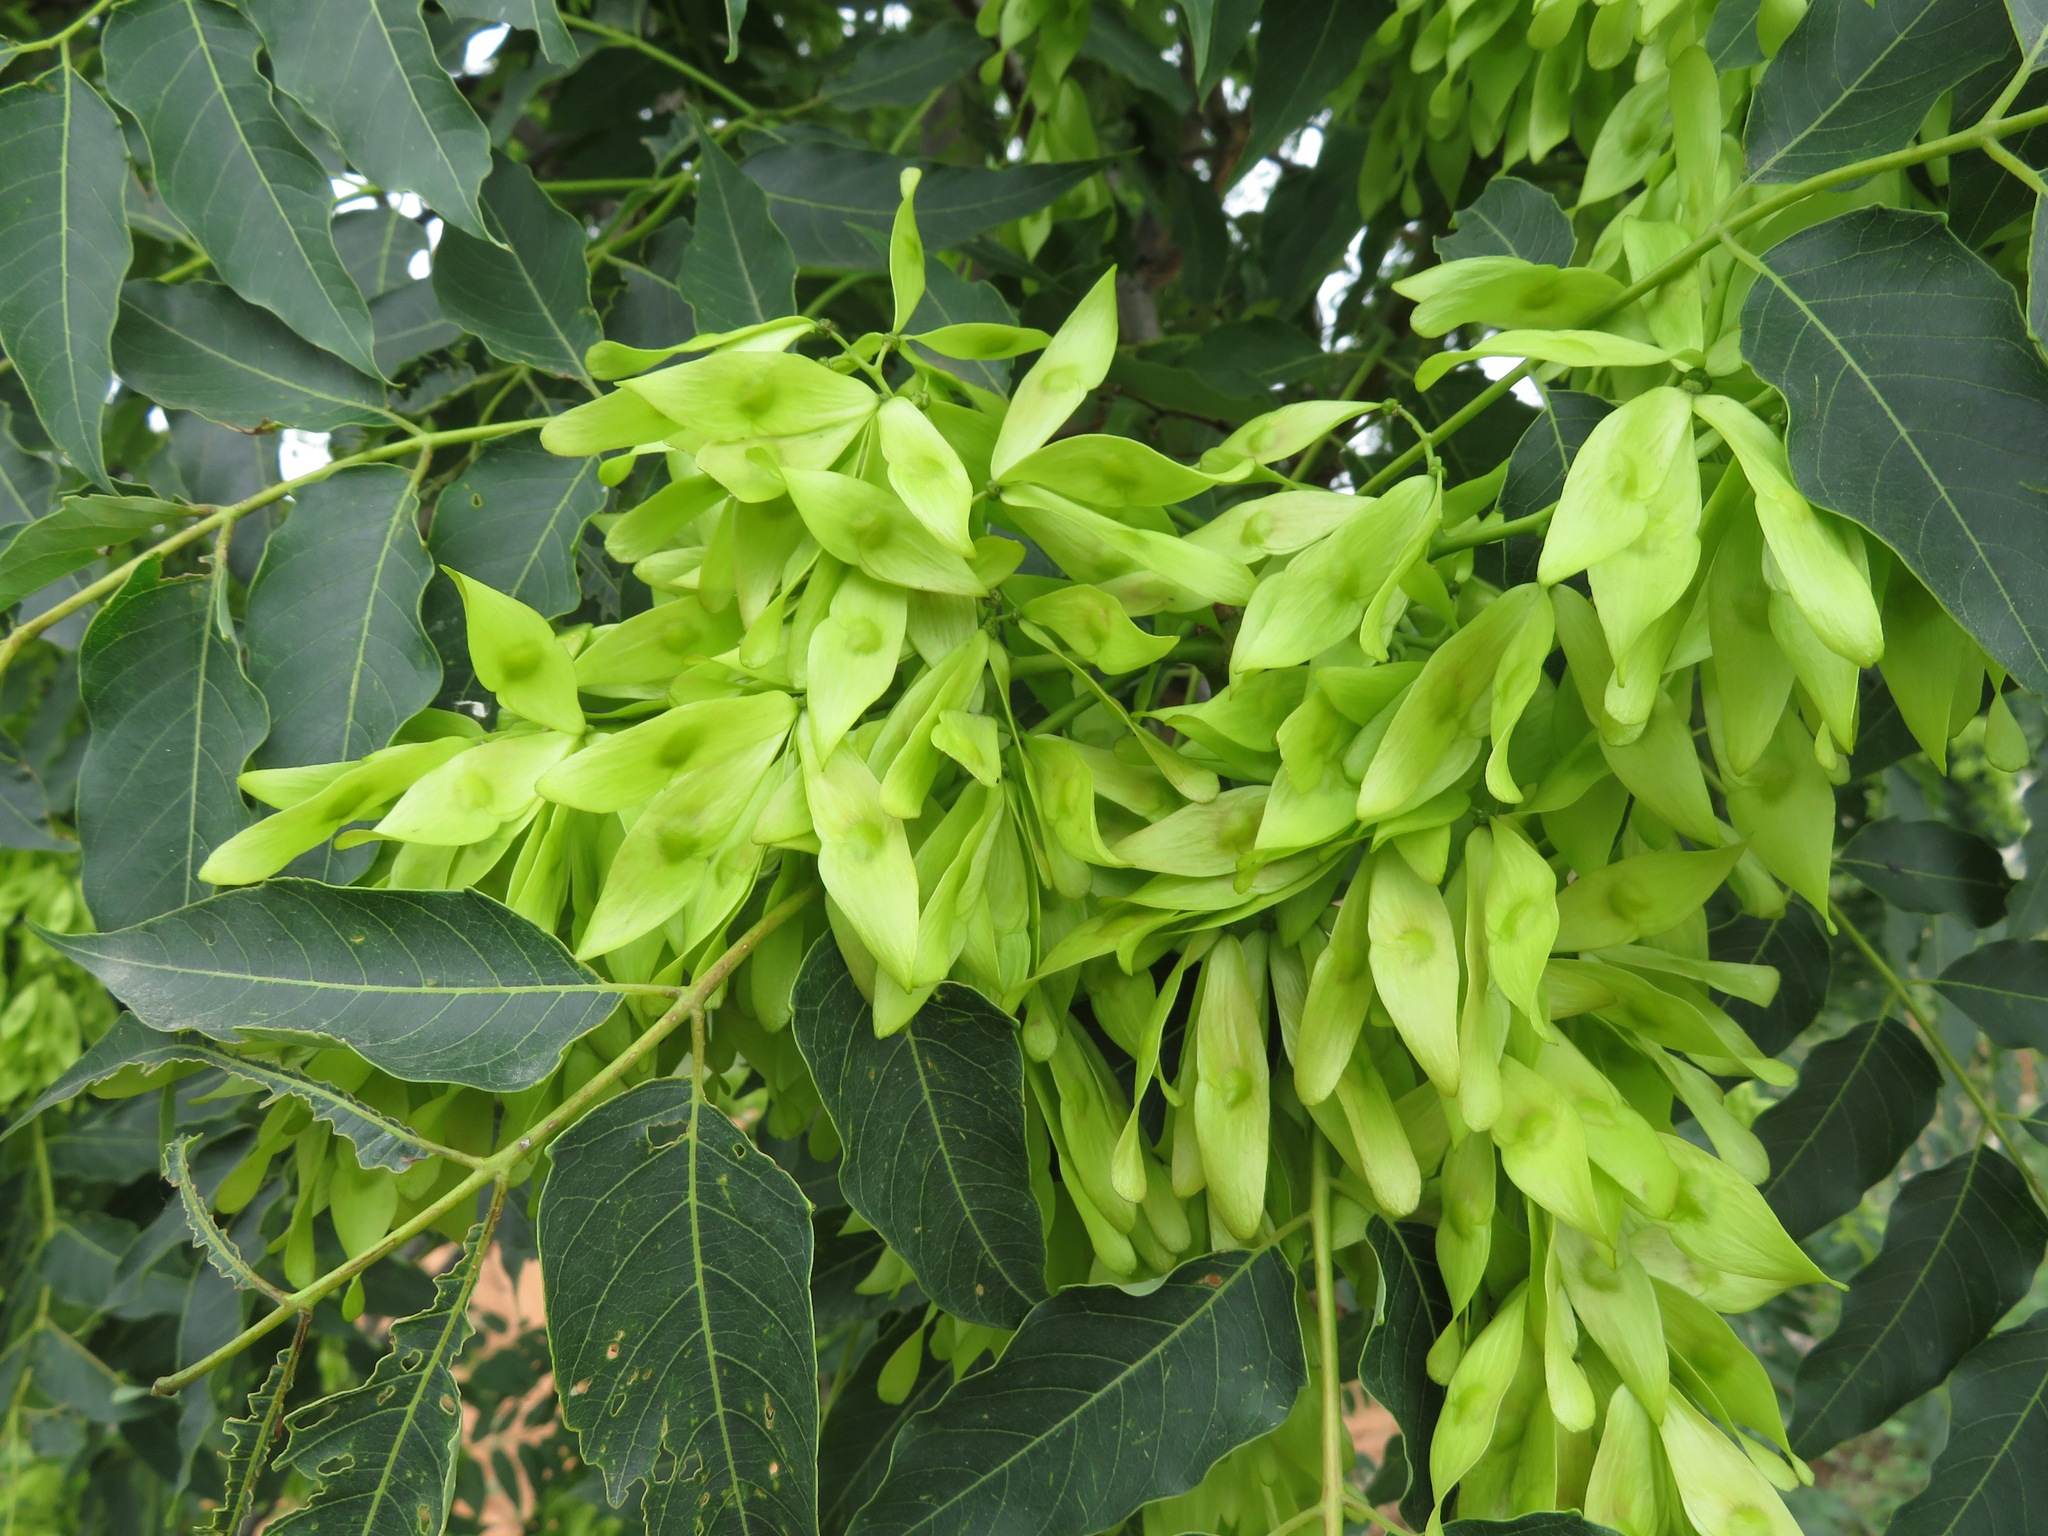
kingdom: Plantae
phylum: Tracheophyta
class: Magnoliopsida
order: Sapindales
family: Simaroubaceae
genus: Ailanthus
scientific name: Ailanthus altissima
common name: Tree-of-heaven
